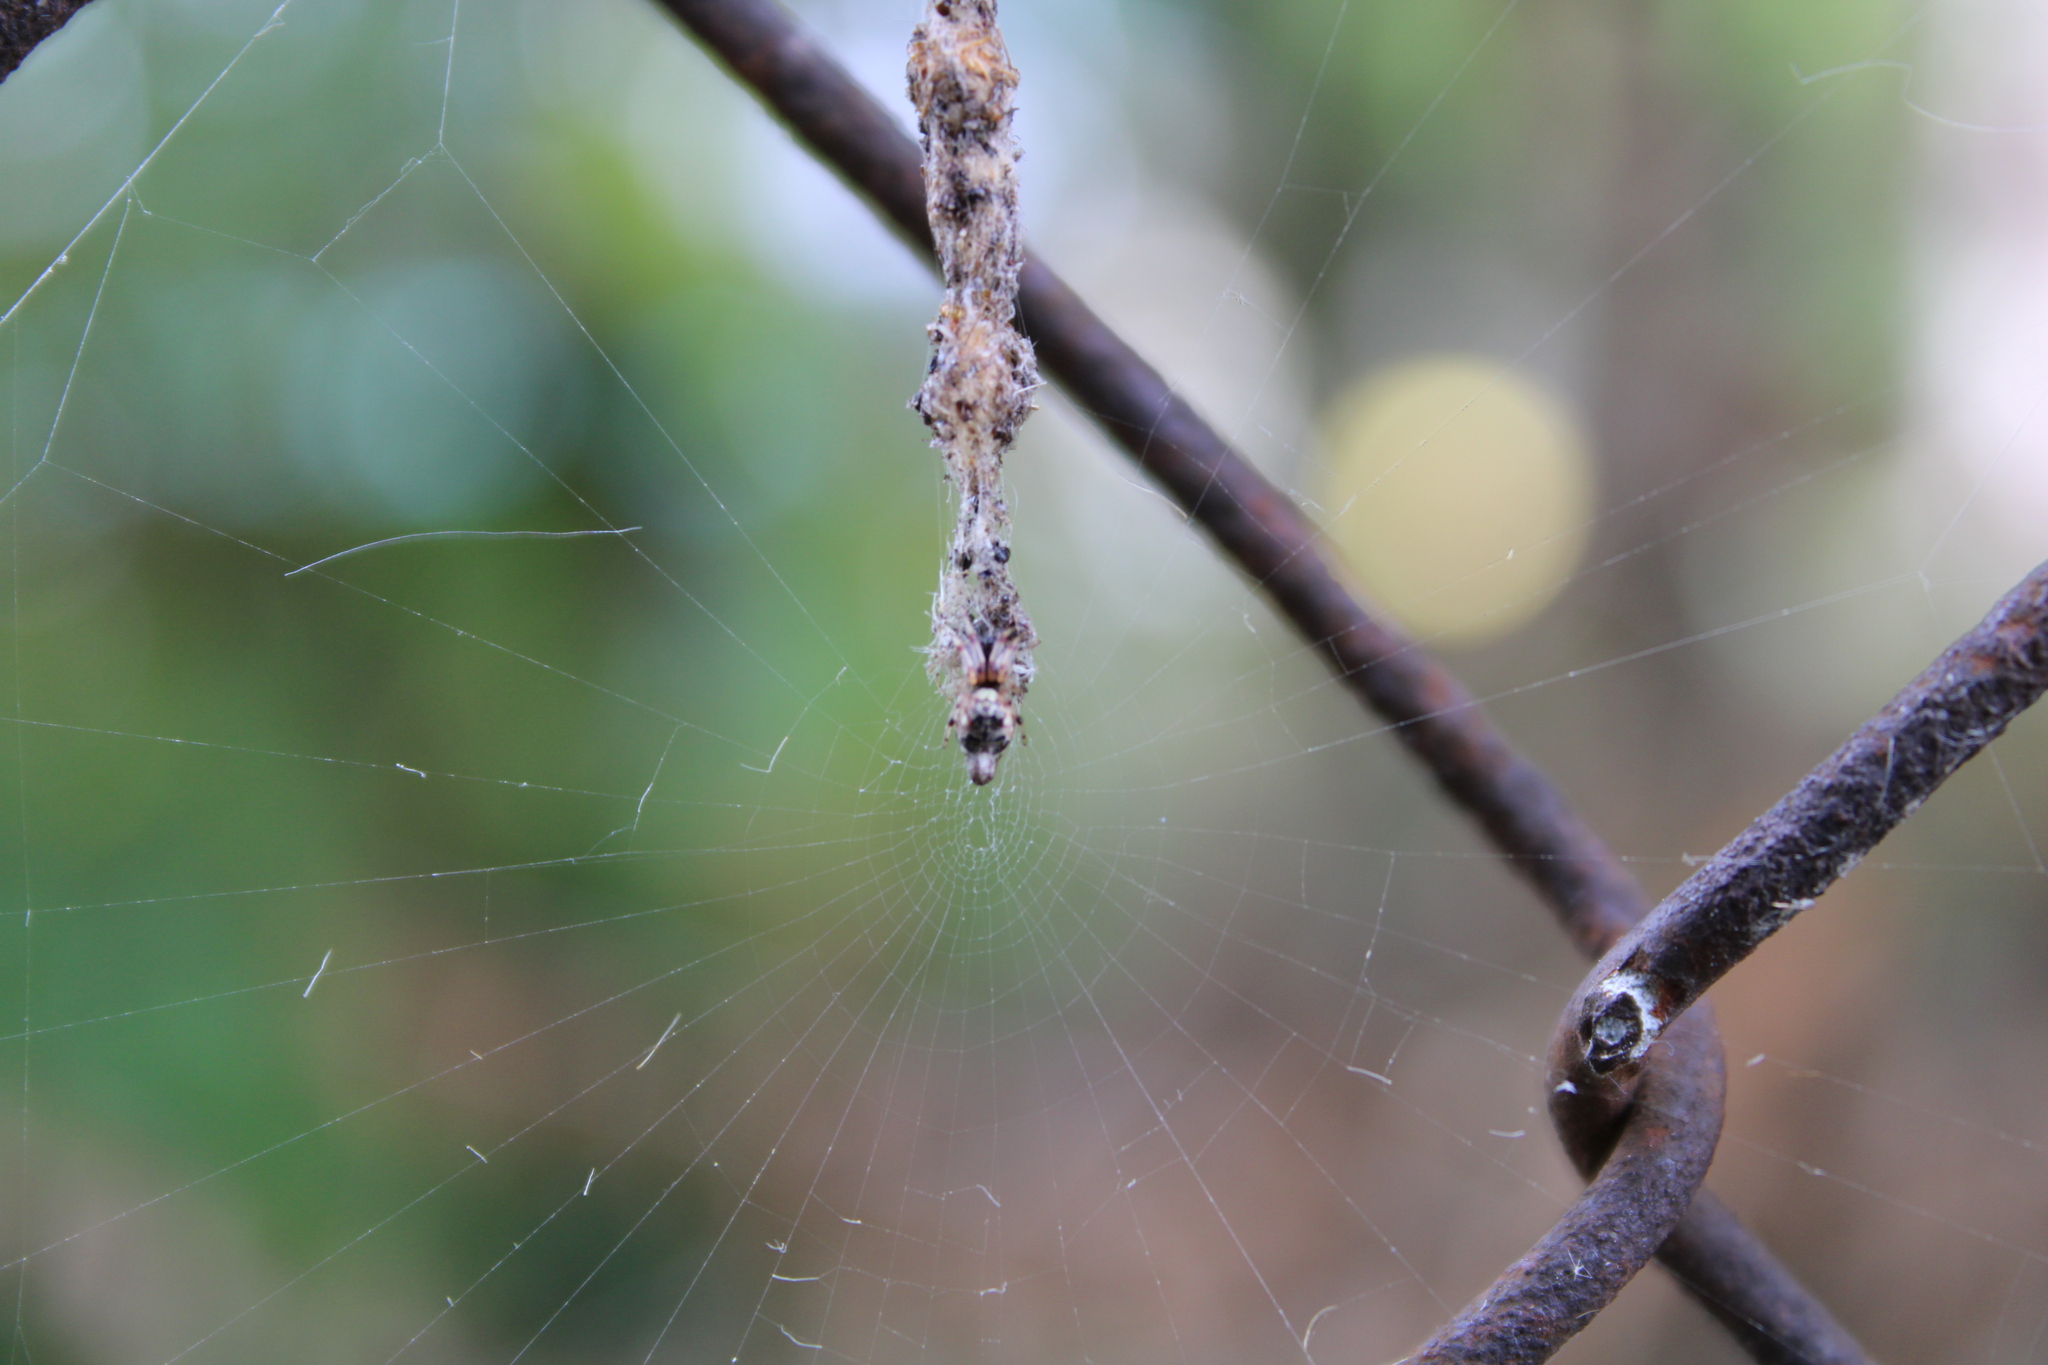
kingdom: Animalia
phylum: Arthropoda
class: Arachnida
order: Araneae
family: Araneidae
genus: Cyclosa
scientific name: Cyclosa turbinata
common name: Orb weavers
